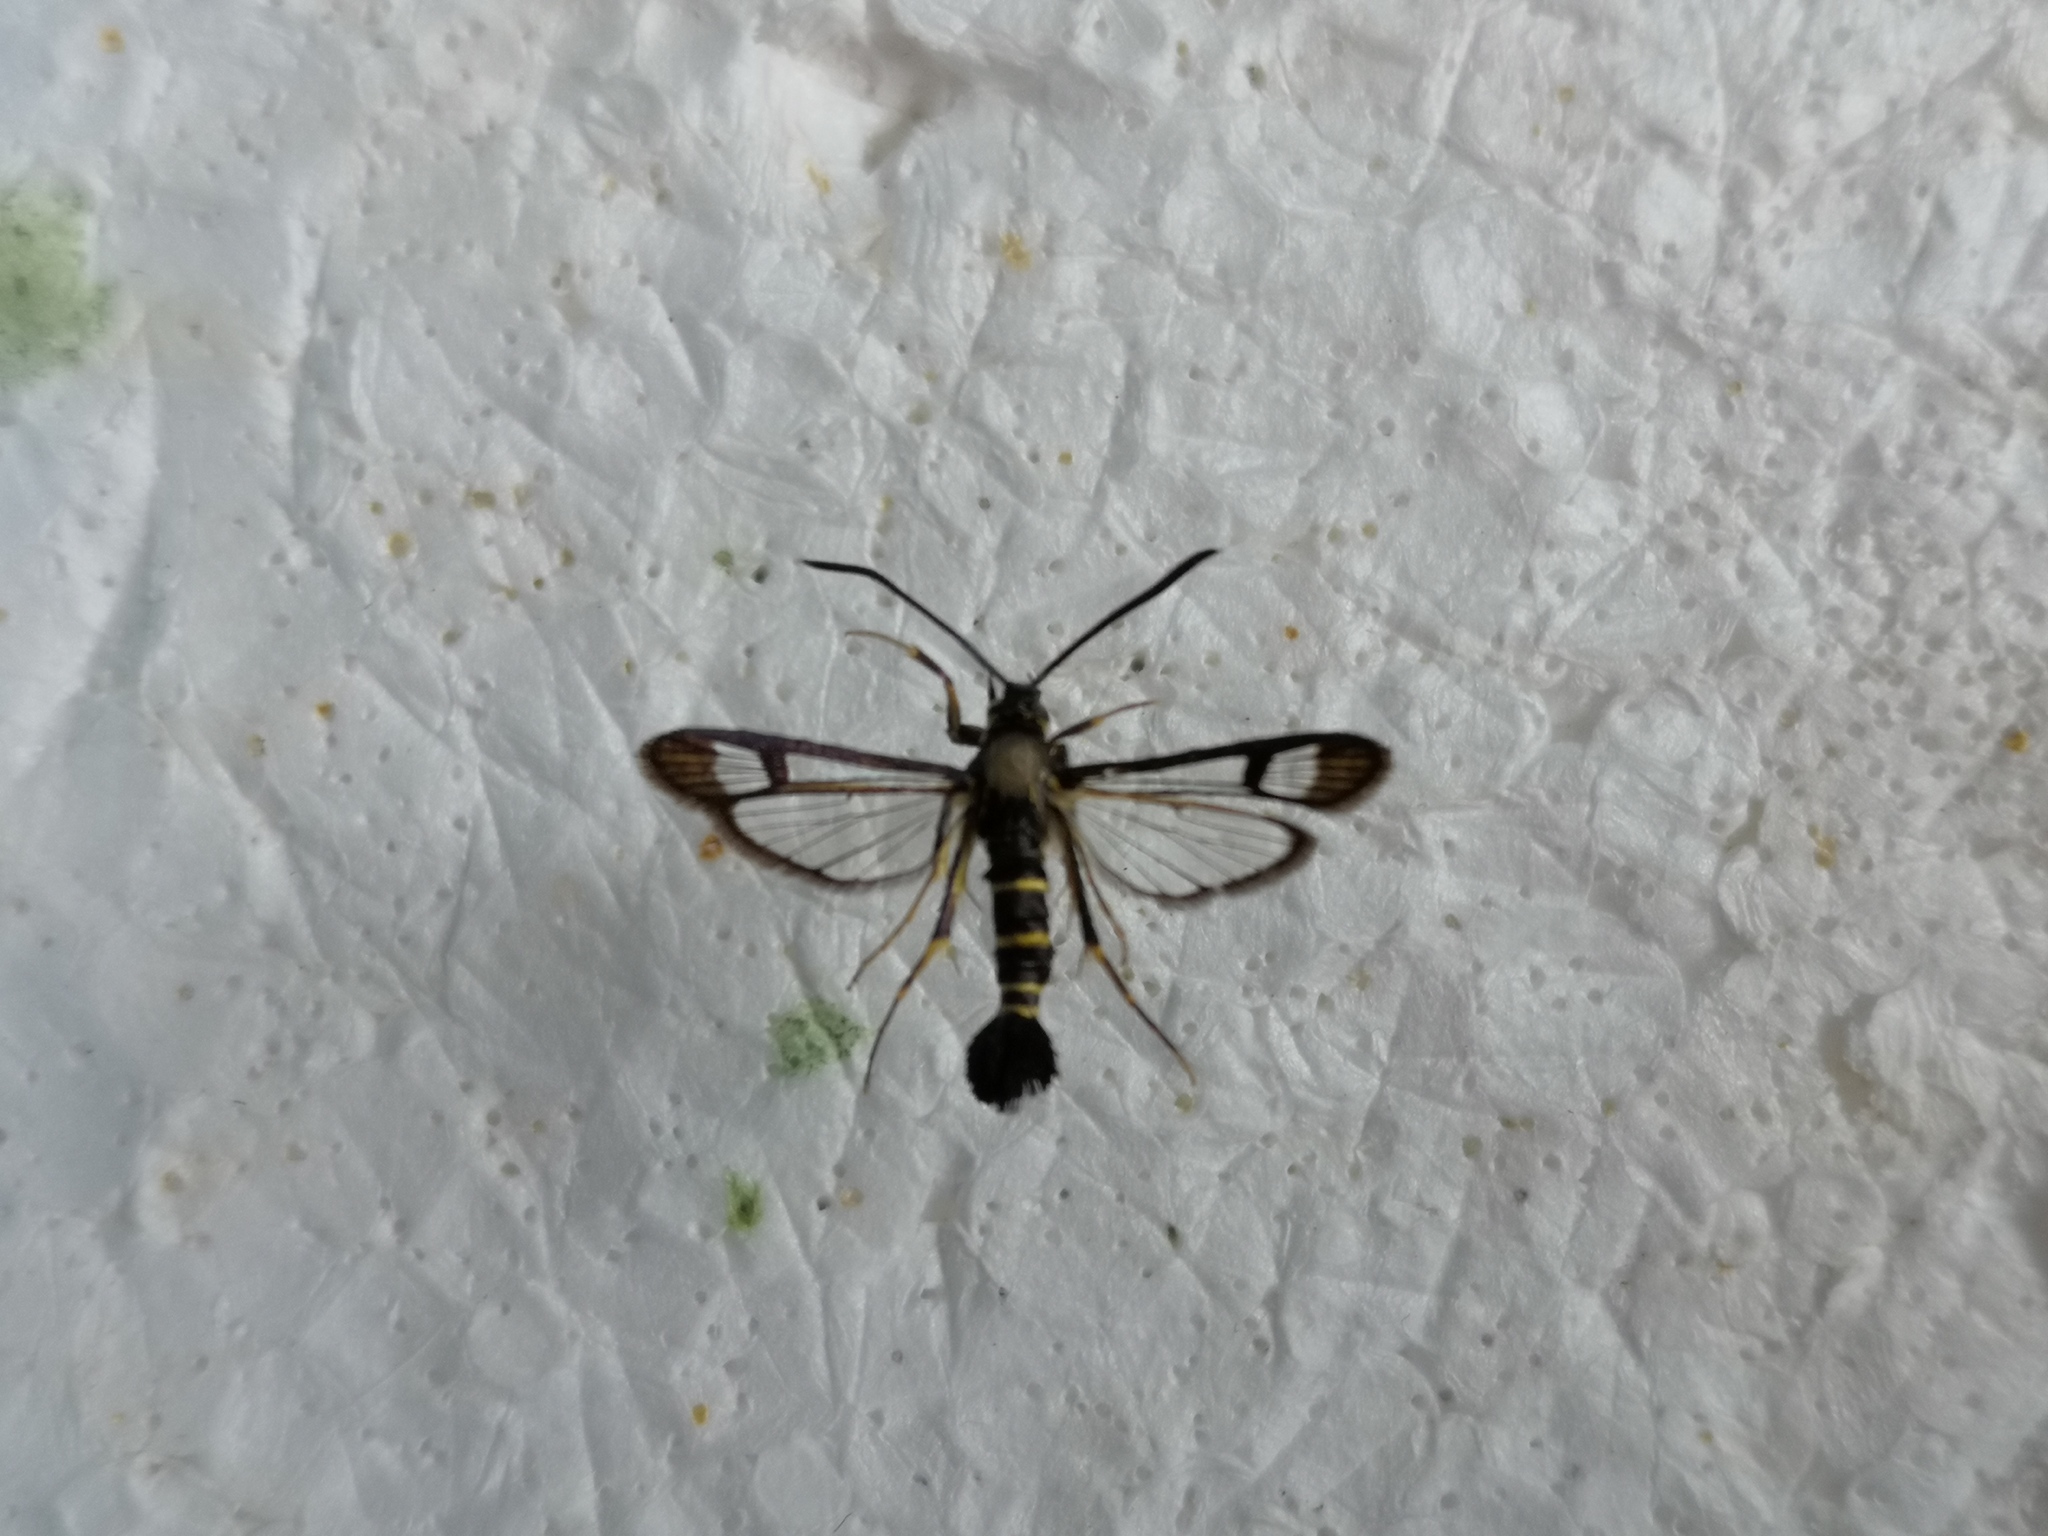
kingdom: Animalia
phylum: Arthropoda
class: Insecta
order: Lepidoptera
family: Sesiidae
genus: Synanthedon
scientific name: Synanthedon spuleri
